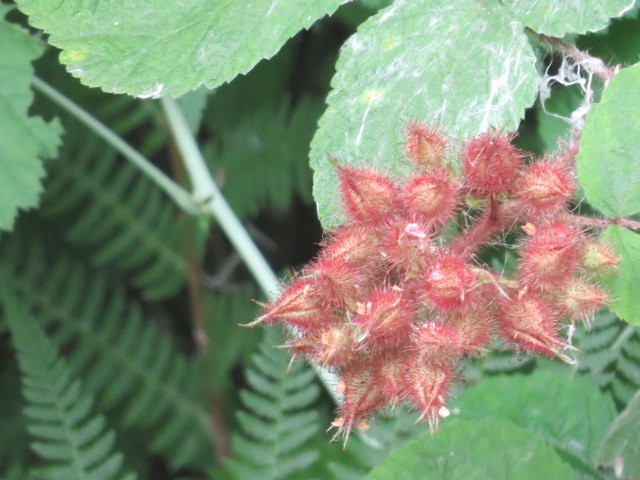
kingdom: Plantae
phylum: Tracheophyta
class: Magnoliopsida
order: Rosales
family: Rosaceae
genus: Rubus
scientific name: Rubus phoenicolasius
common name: Japanese wineberry
